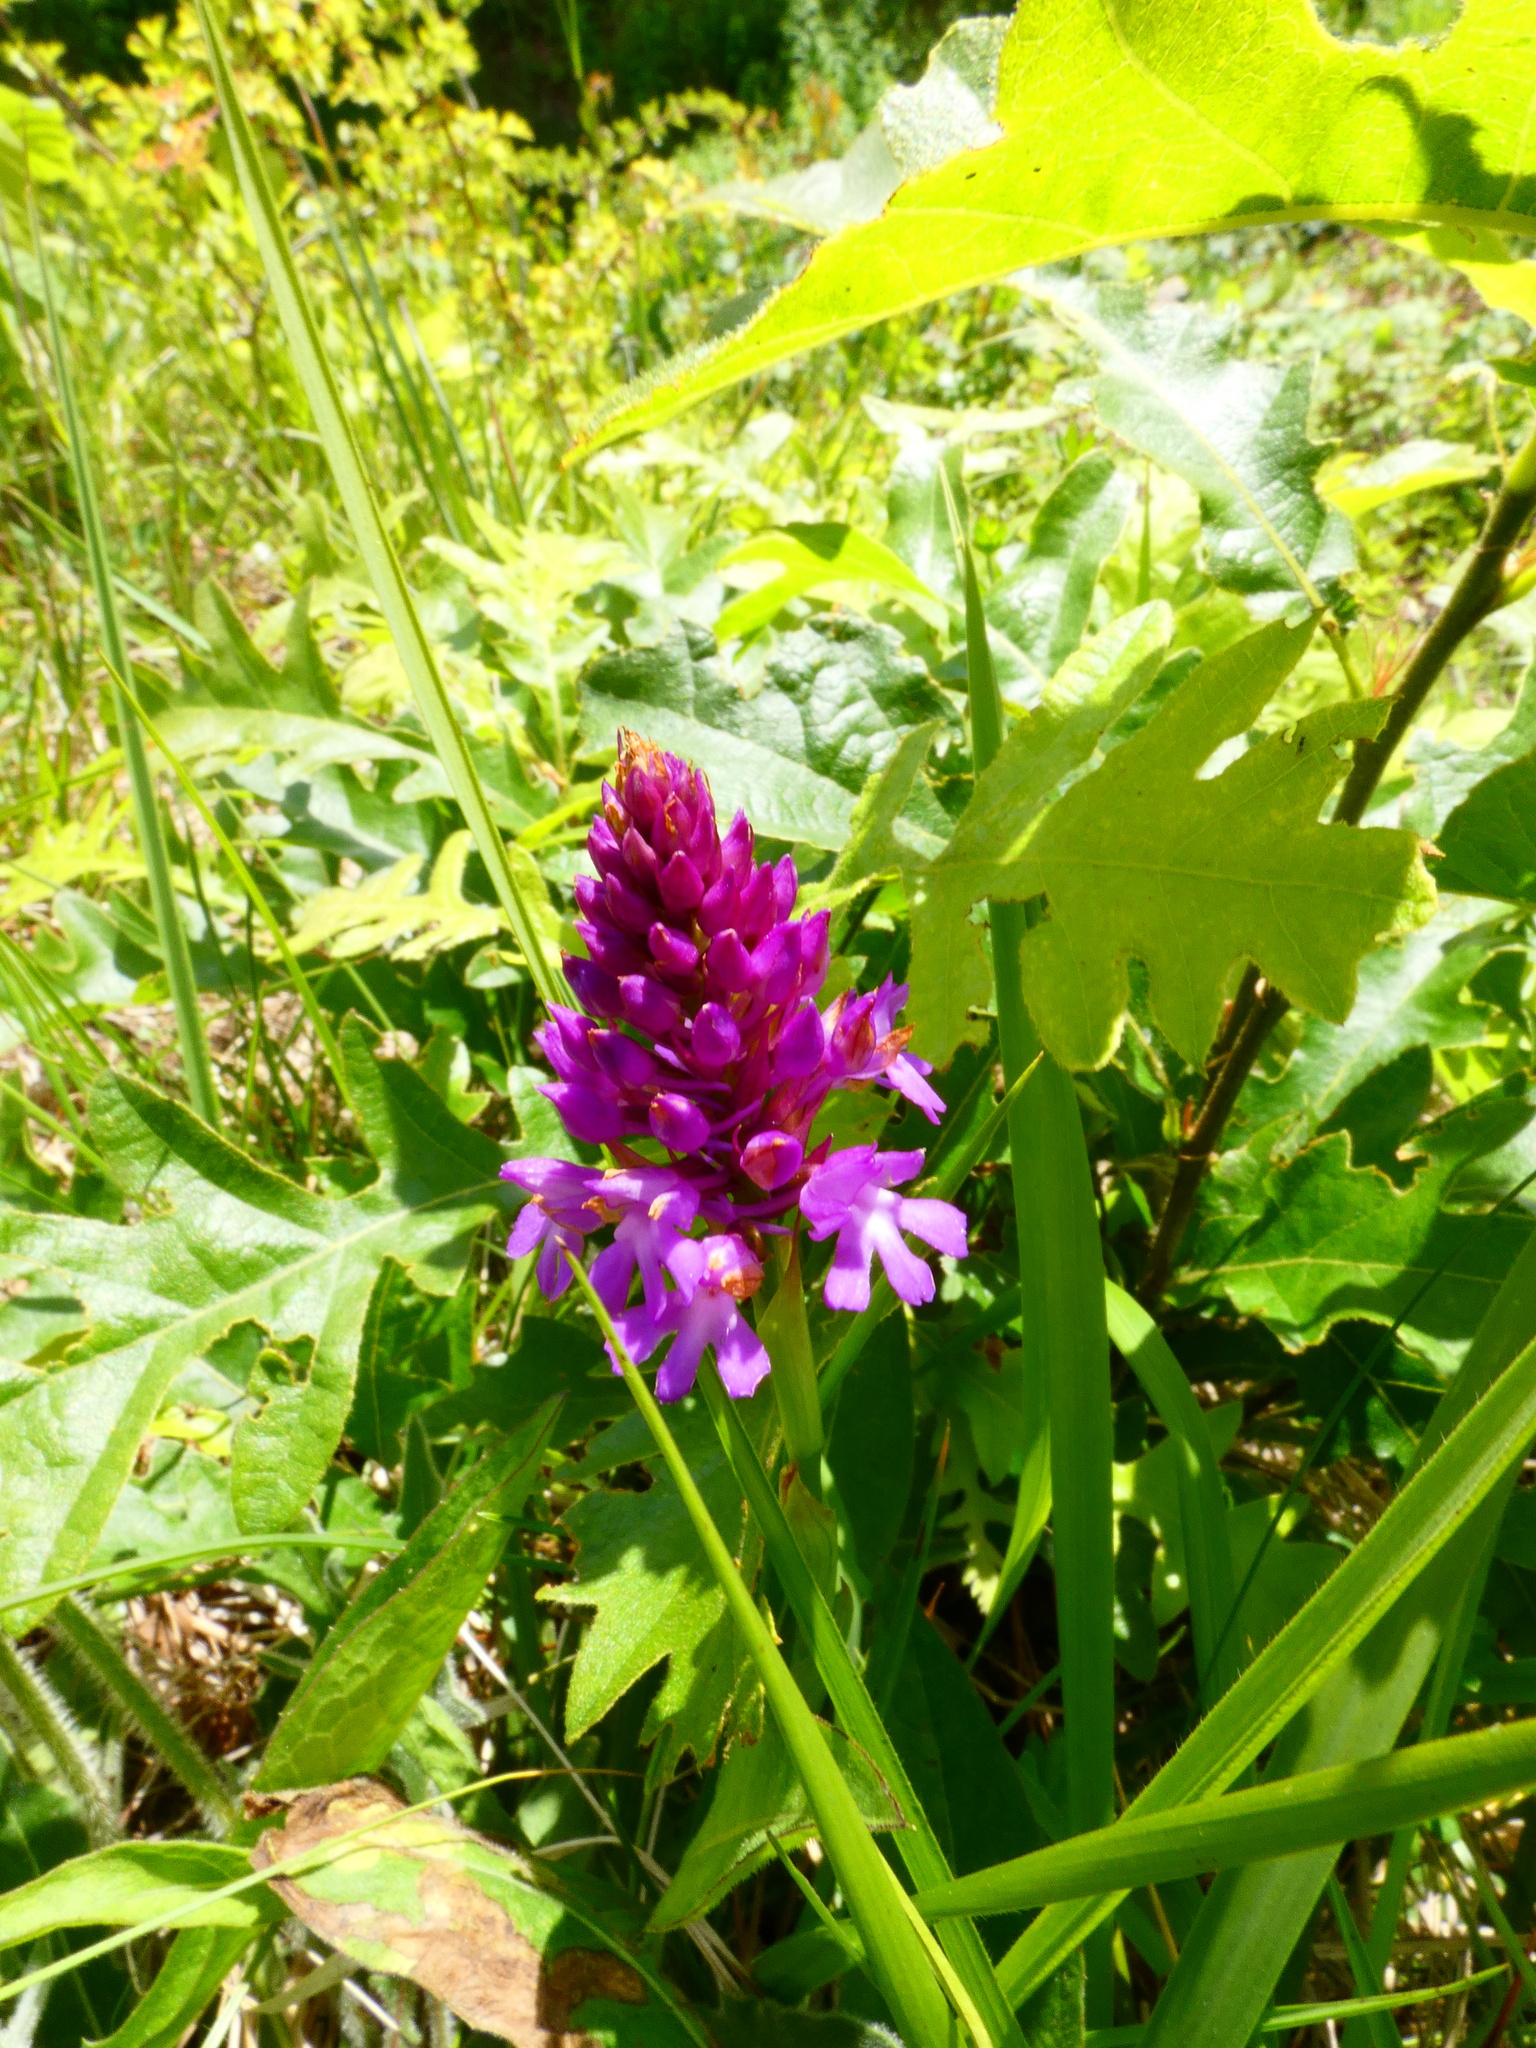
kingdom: Plantae
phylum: Tracheophyta
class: Liliopsida
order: Asparagales
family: Orchidaceae
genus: Anacamptis
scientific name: Anacamptis pyramidalis
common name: Pyramidal orchid
